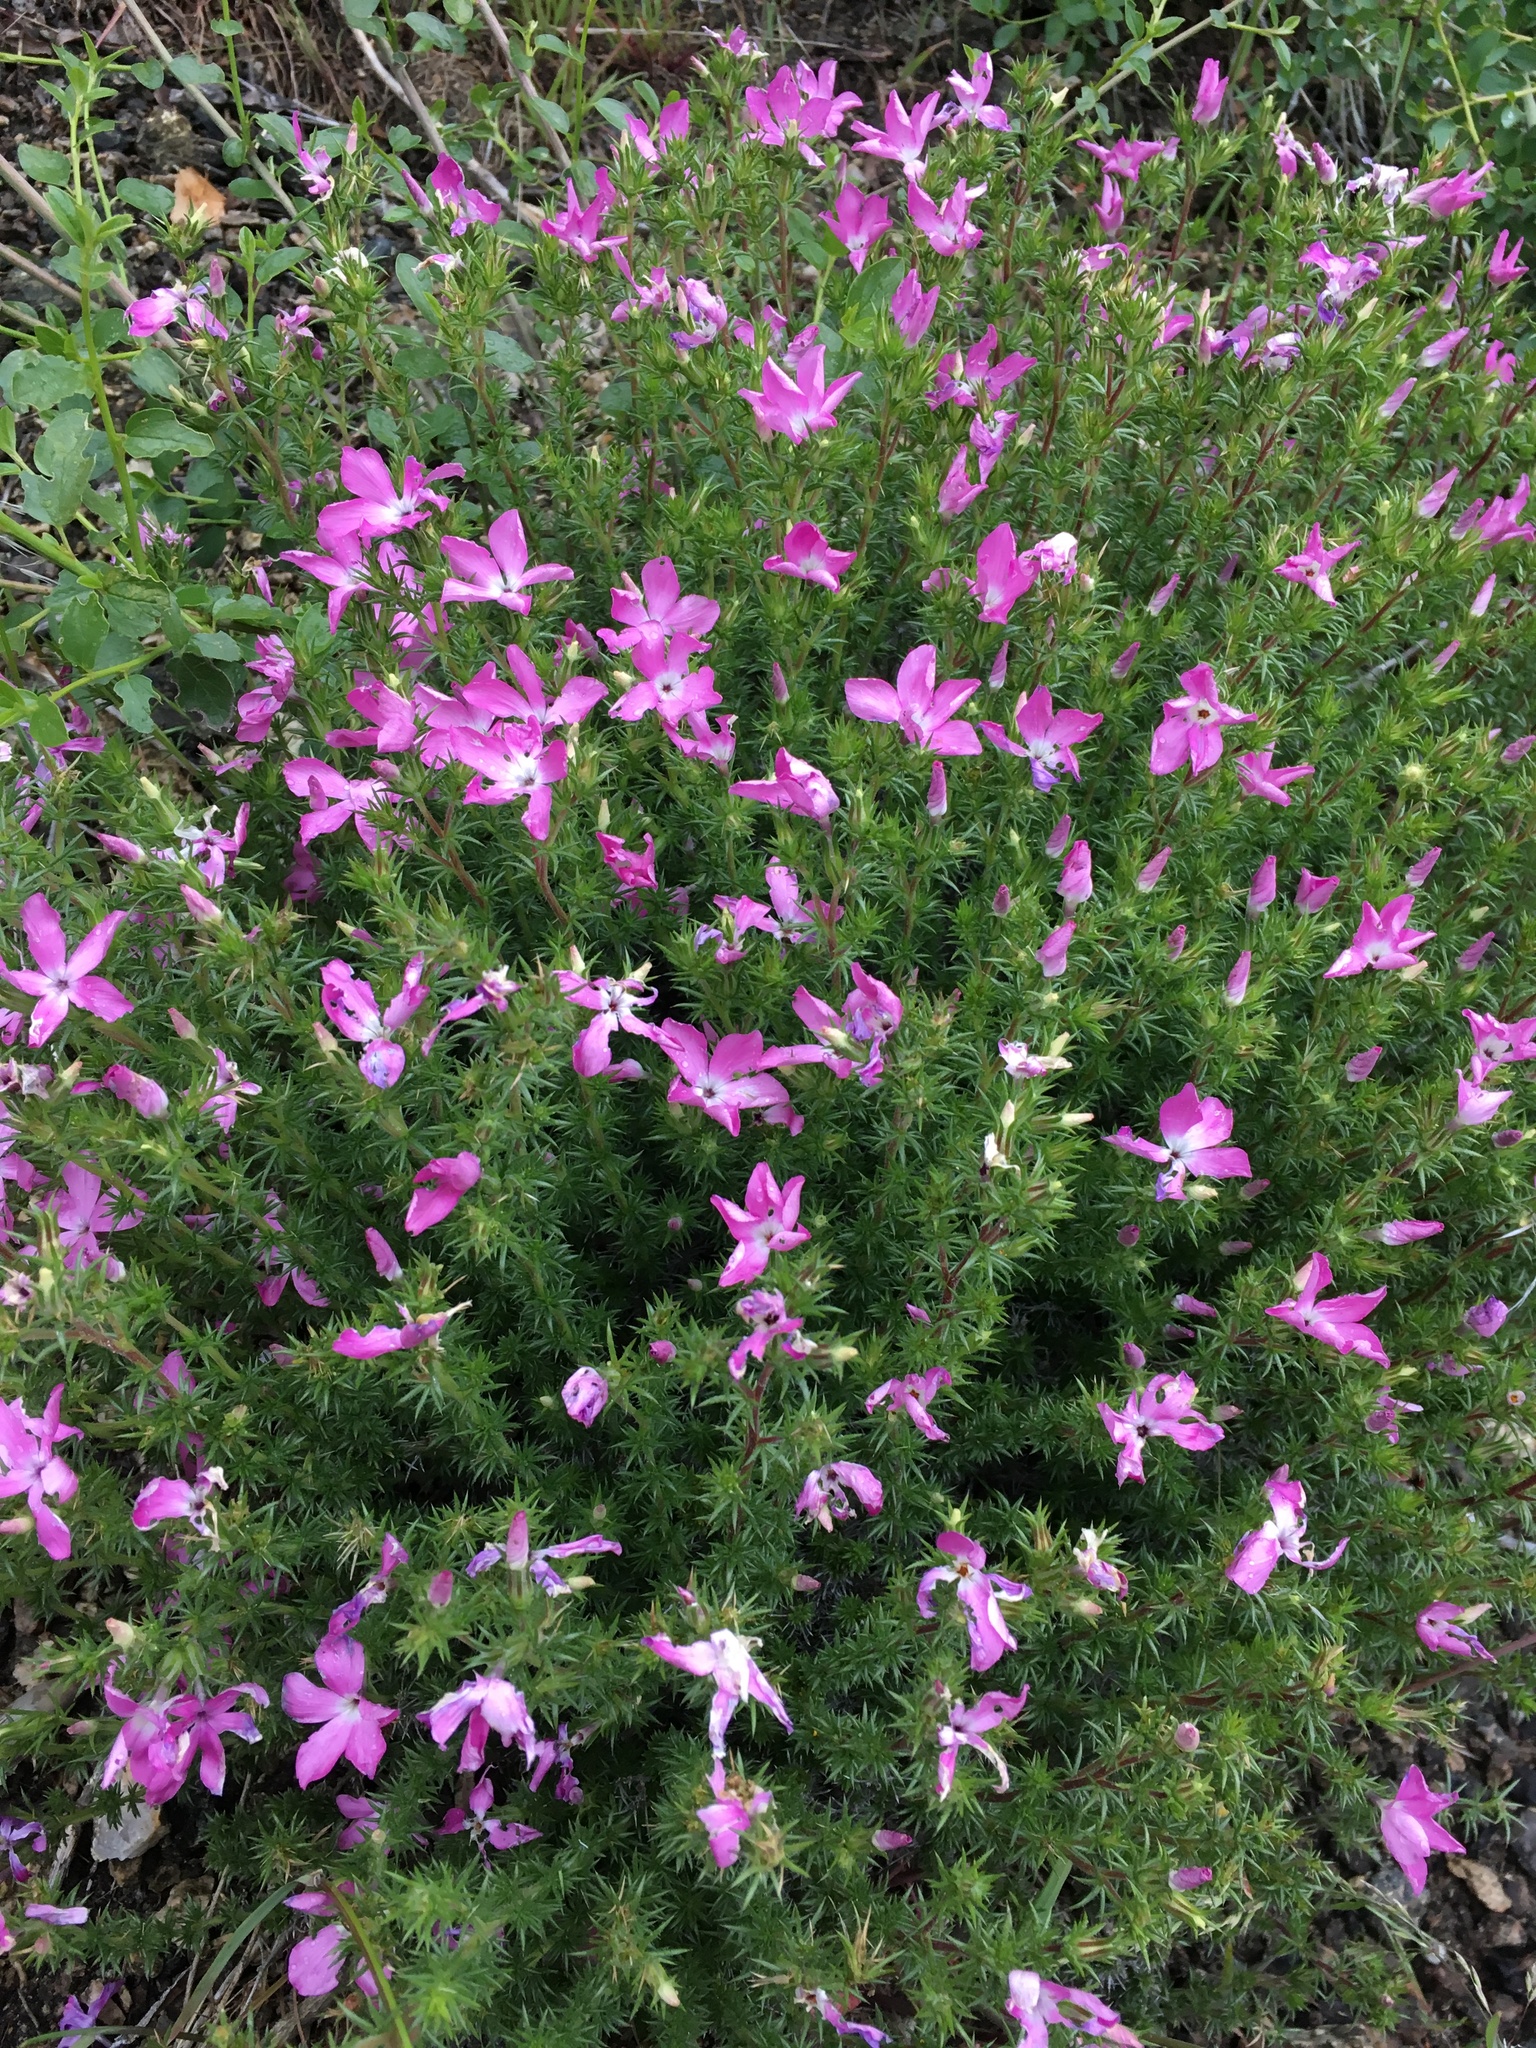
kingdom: Plantae
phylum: Tracheophyta
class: Magnoliopsida
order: Ericales
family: Polemoniaceae
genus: Linanthus
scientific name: Linanthus californicus
